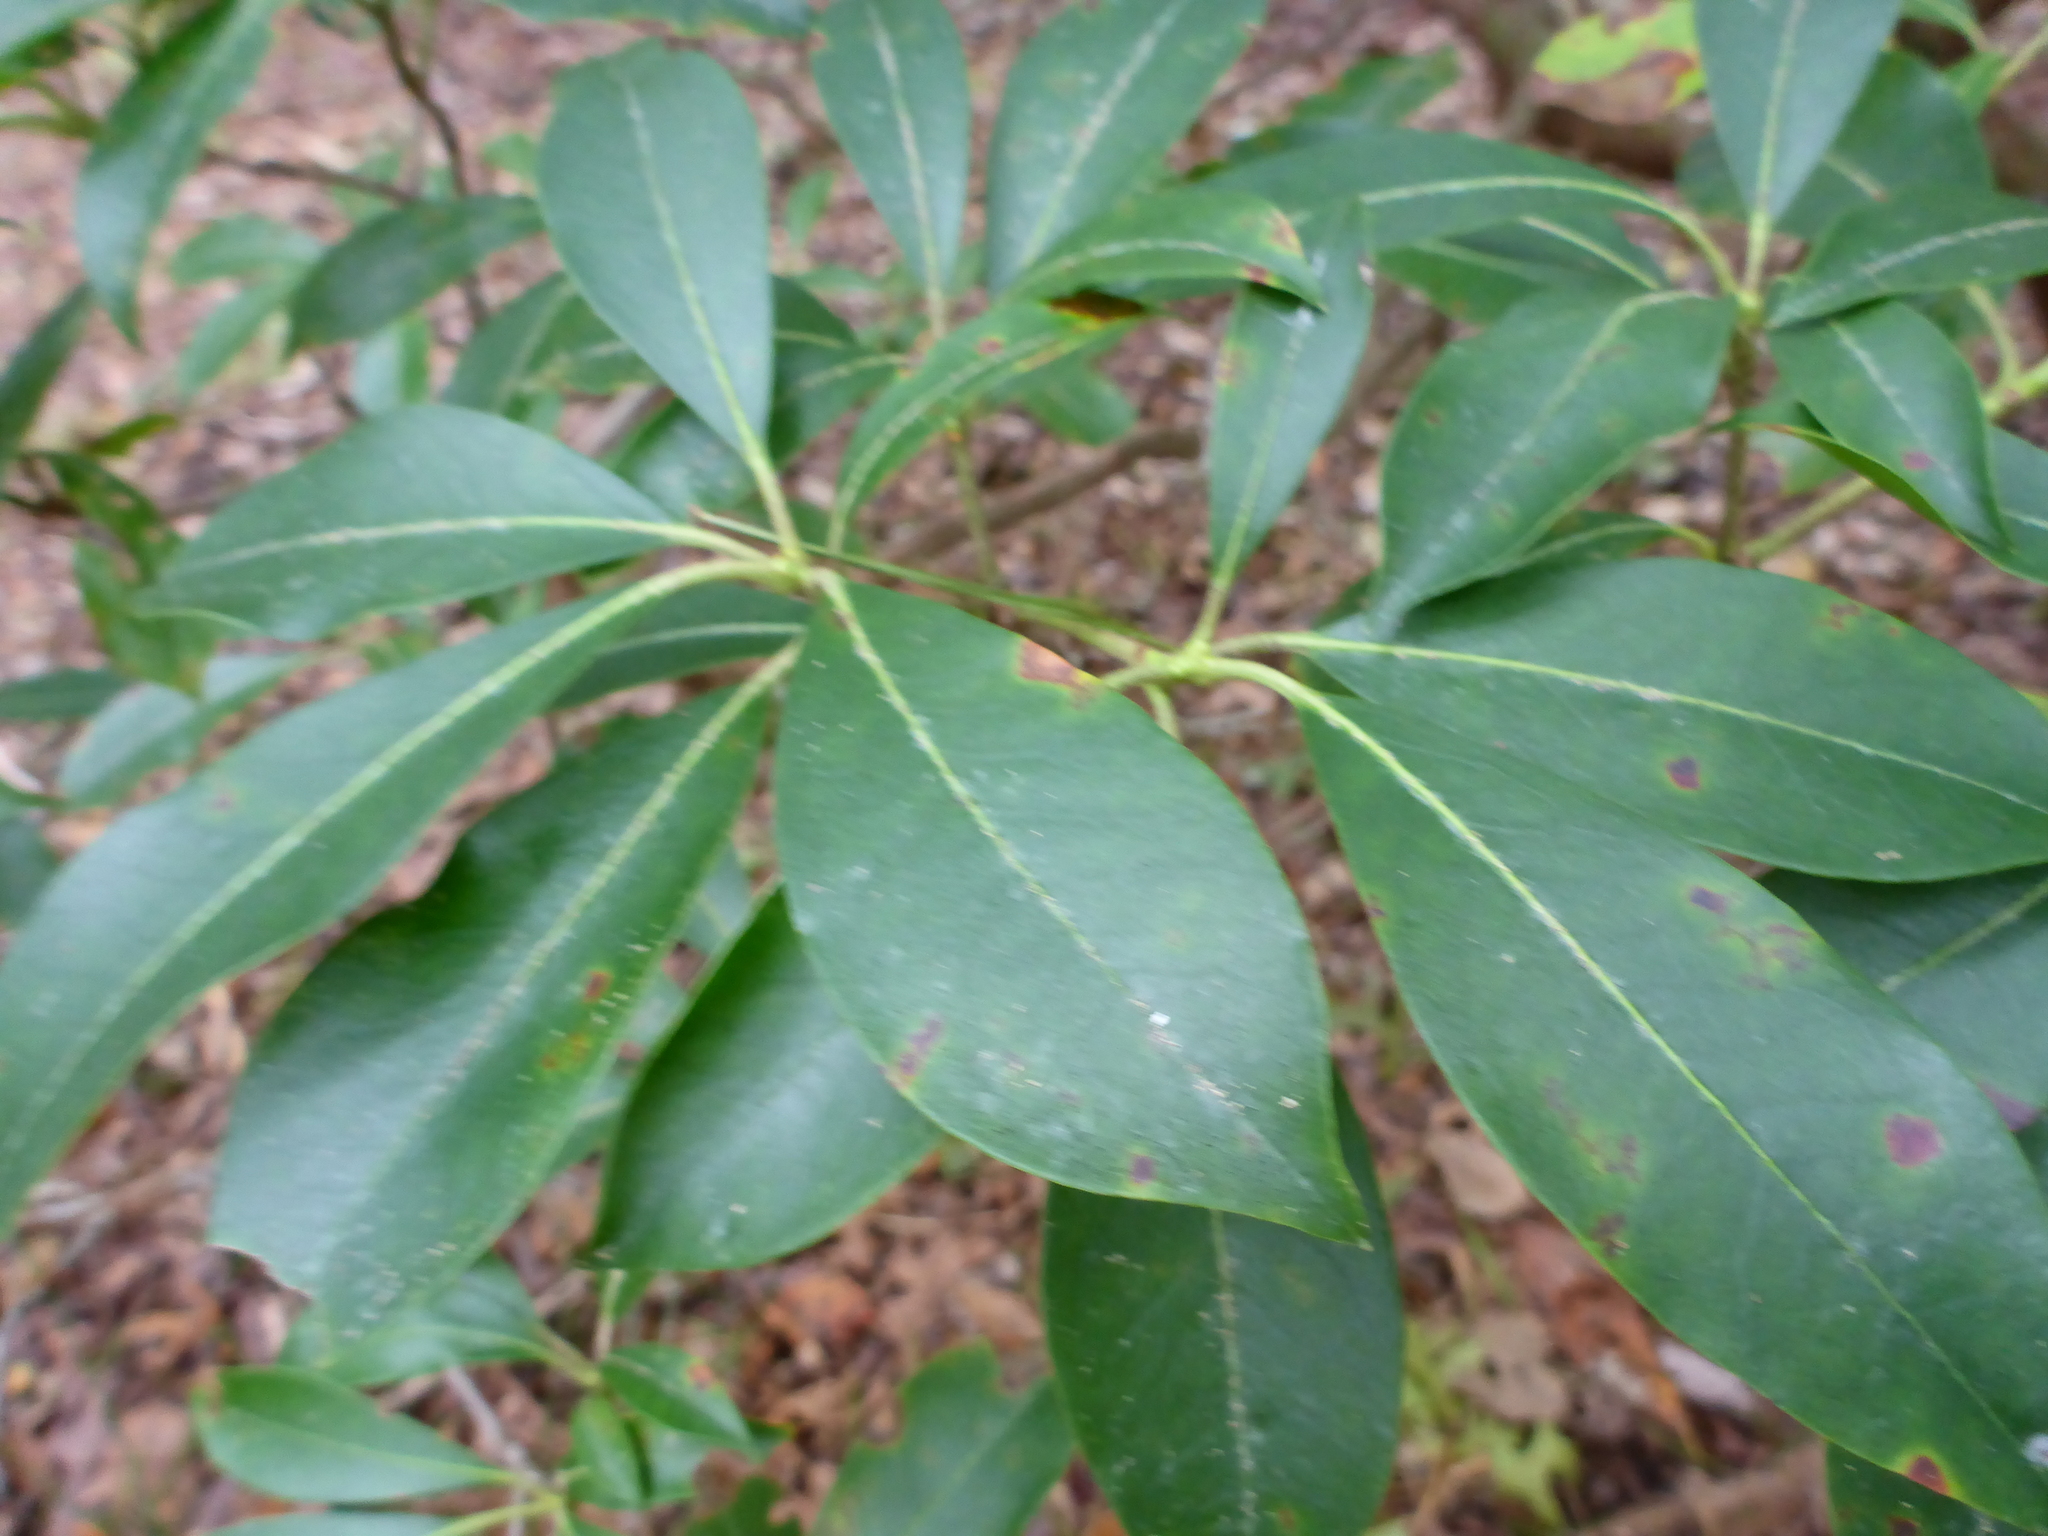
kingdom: Plantae
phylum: Tracheophyta
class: Magnoliopsida
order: Ericales
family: Ericaceae
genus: Kalmia
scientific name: Kalmia latifolia
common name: Mountain-laurel
